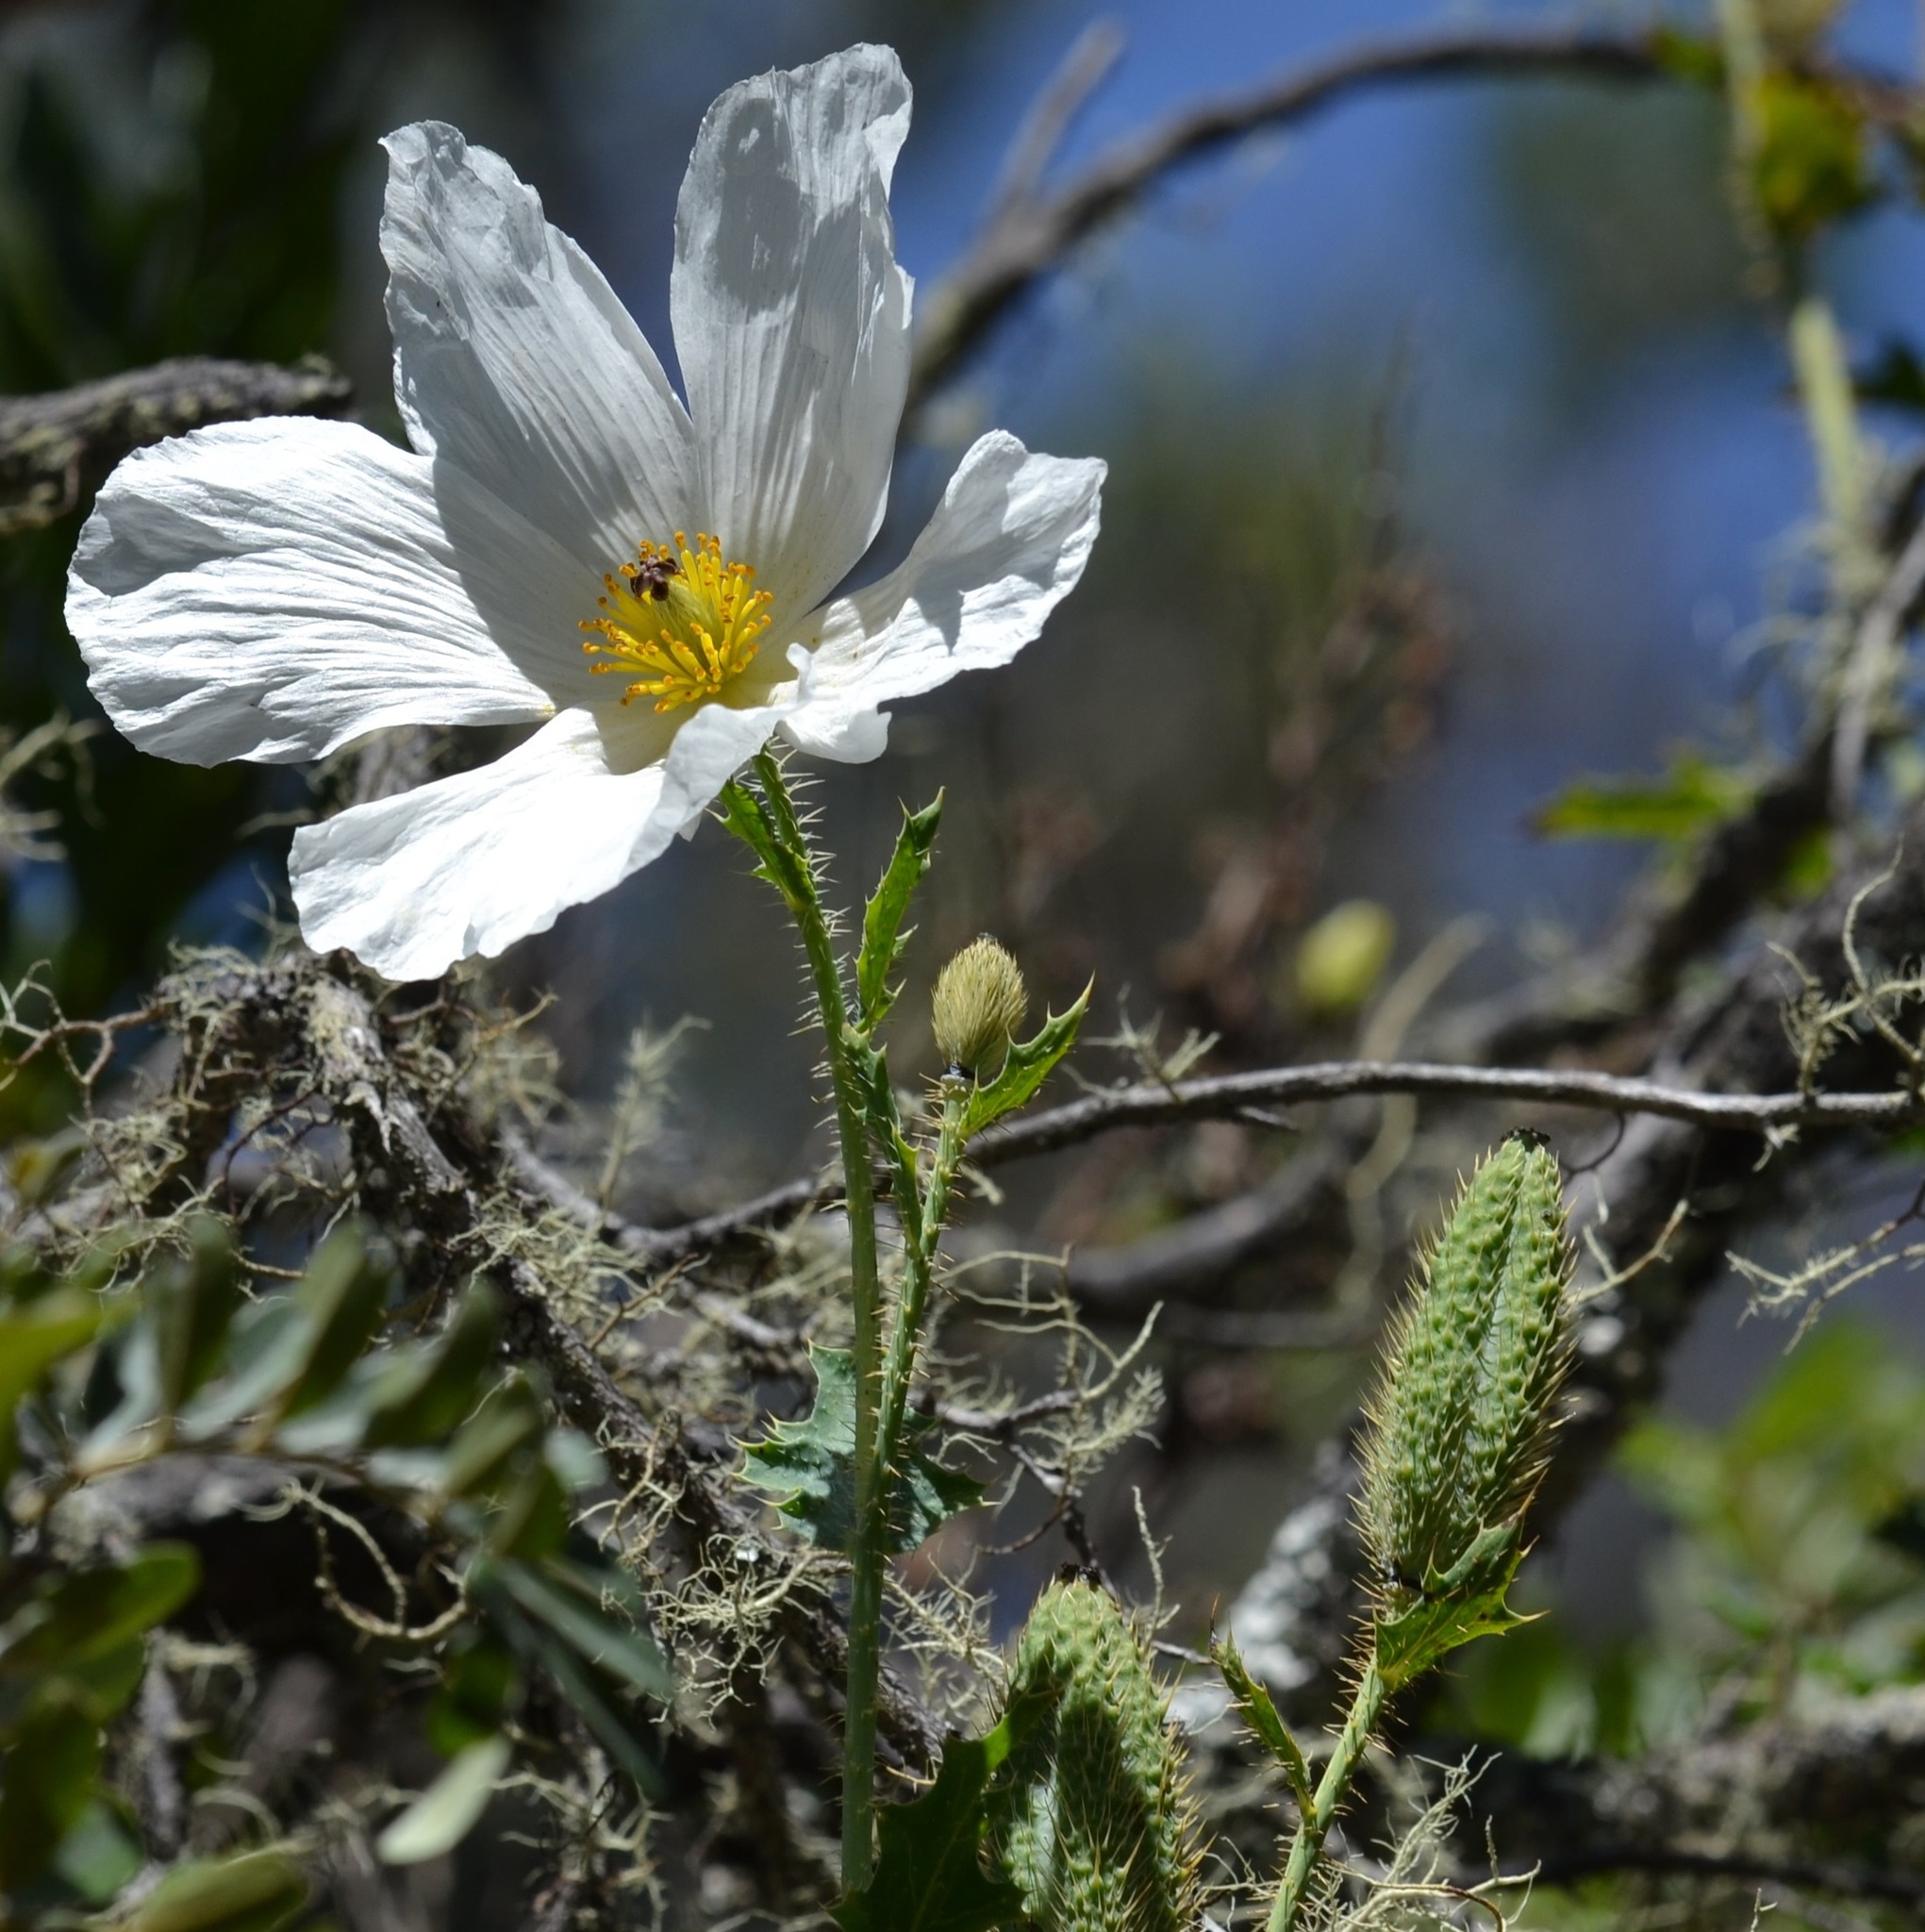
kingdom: Plantae
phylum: Tracheophyta
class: Magnoliopsida
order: Ranunculales
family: Papaveraceae
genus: Argemone
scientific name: Argemone glauca
